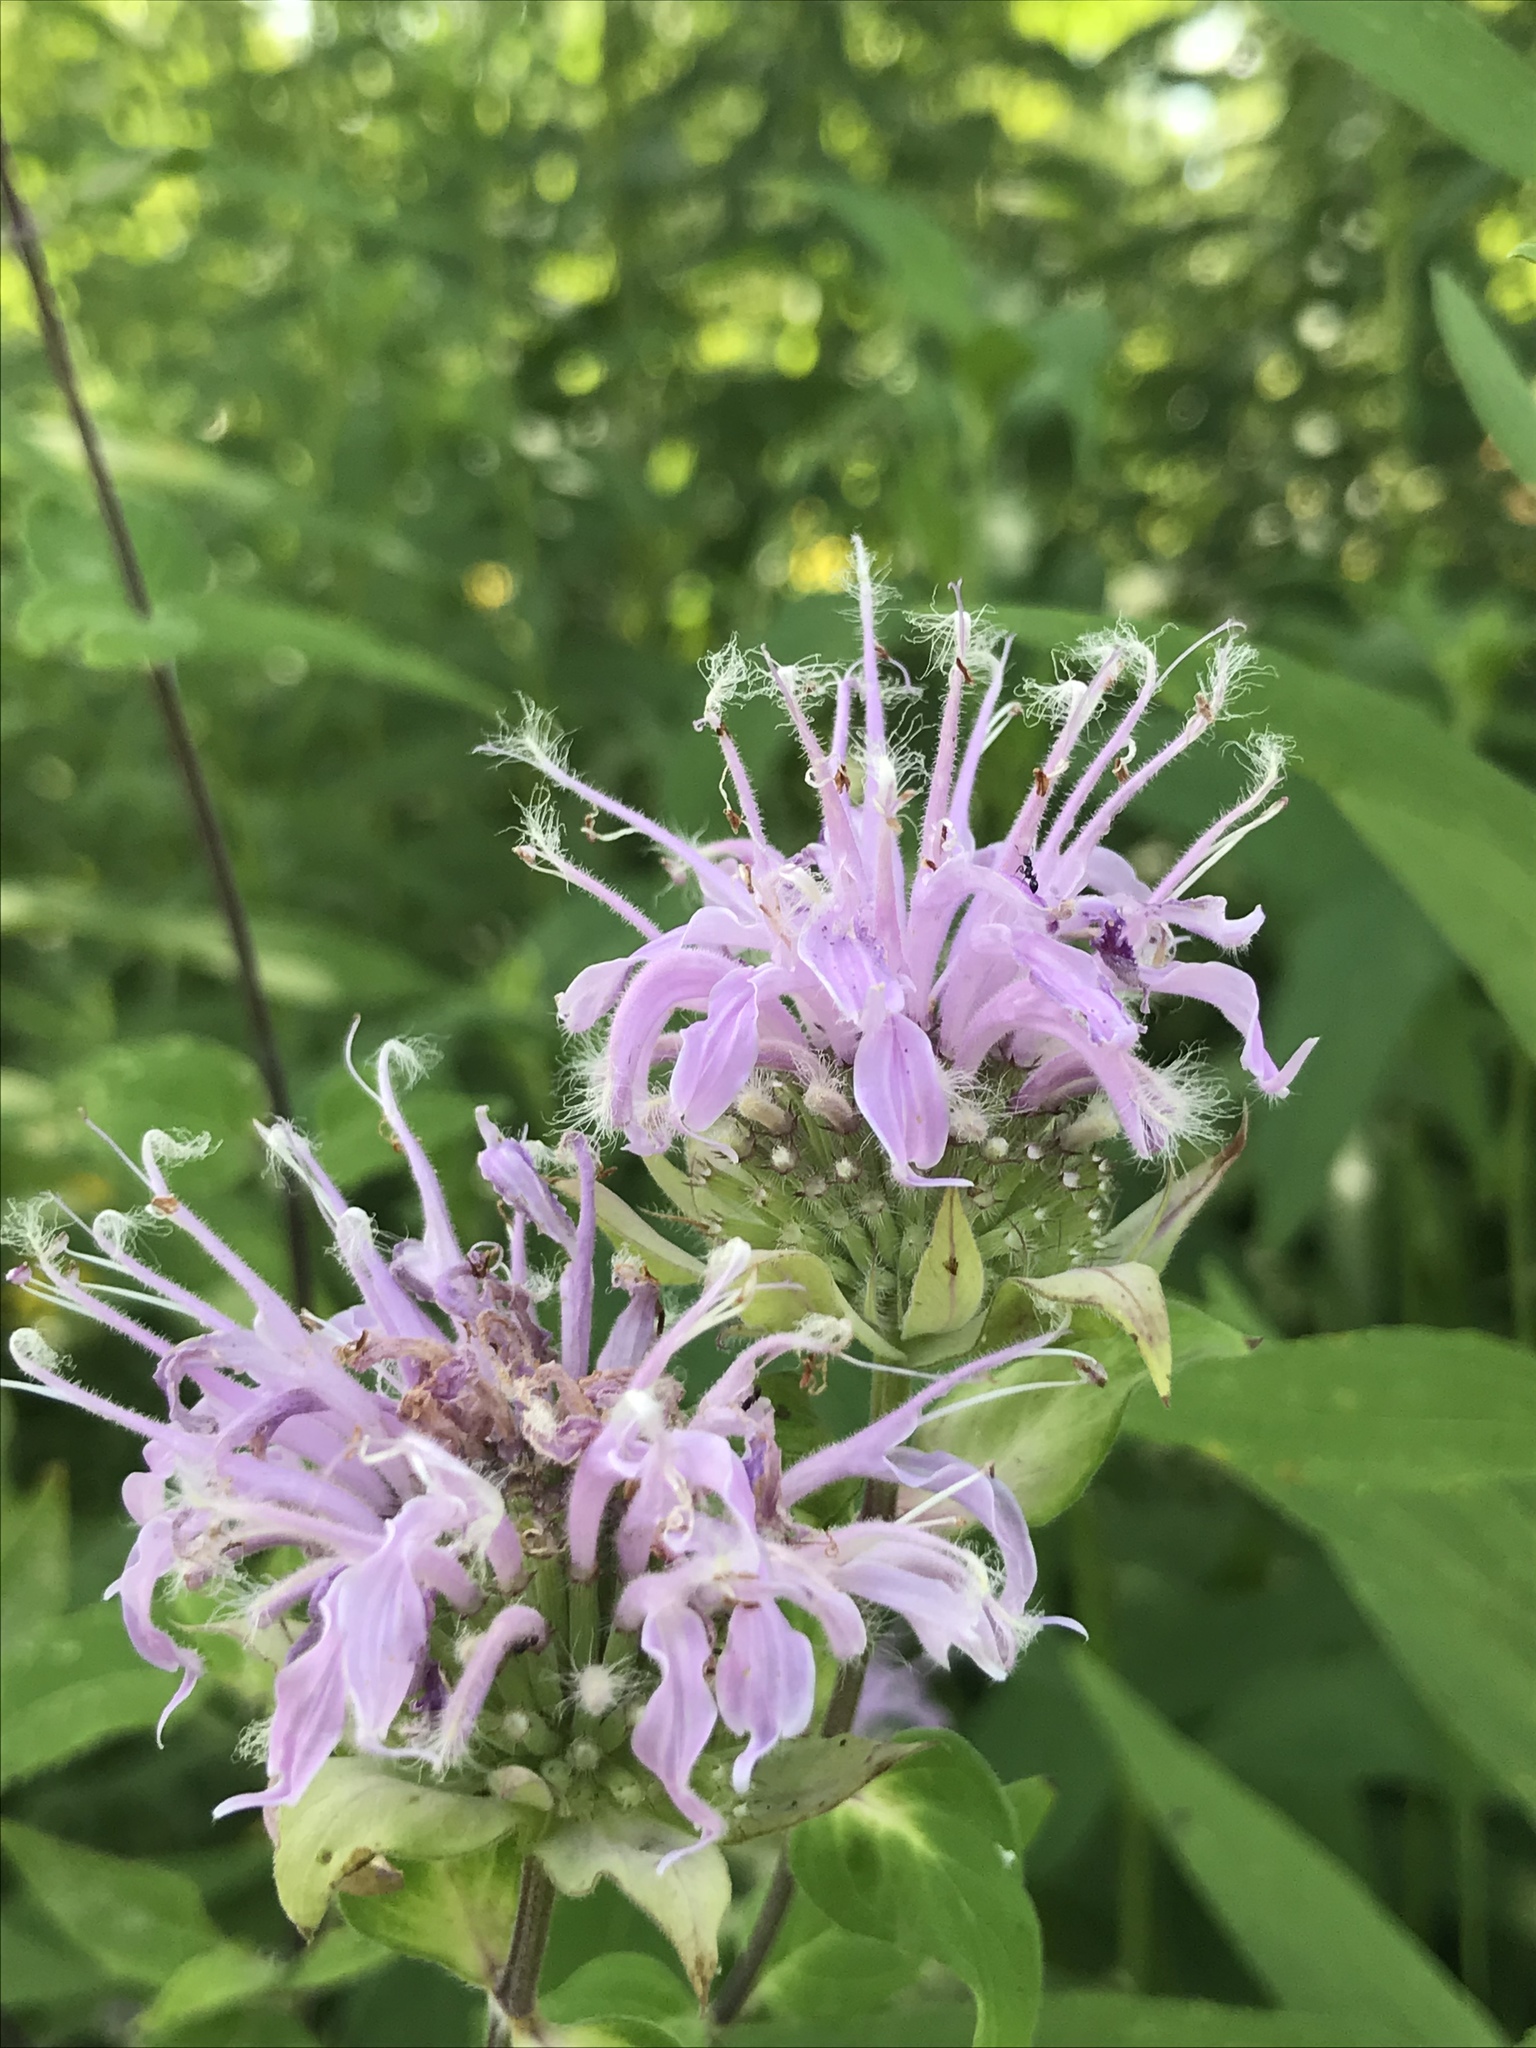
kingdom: Plantae
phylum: Tracheophyta
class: Magnoliopsida
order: Lamiales
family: Lamiaceae
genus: Monarda
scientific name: Monarda fistulosa
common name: Purple beebalm
